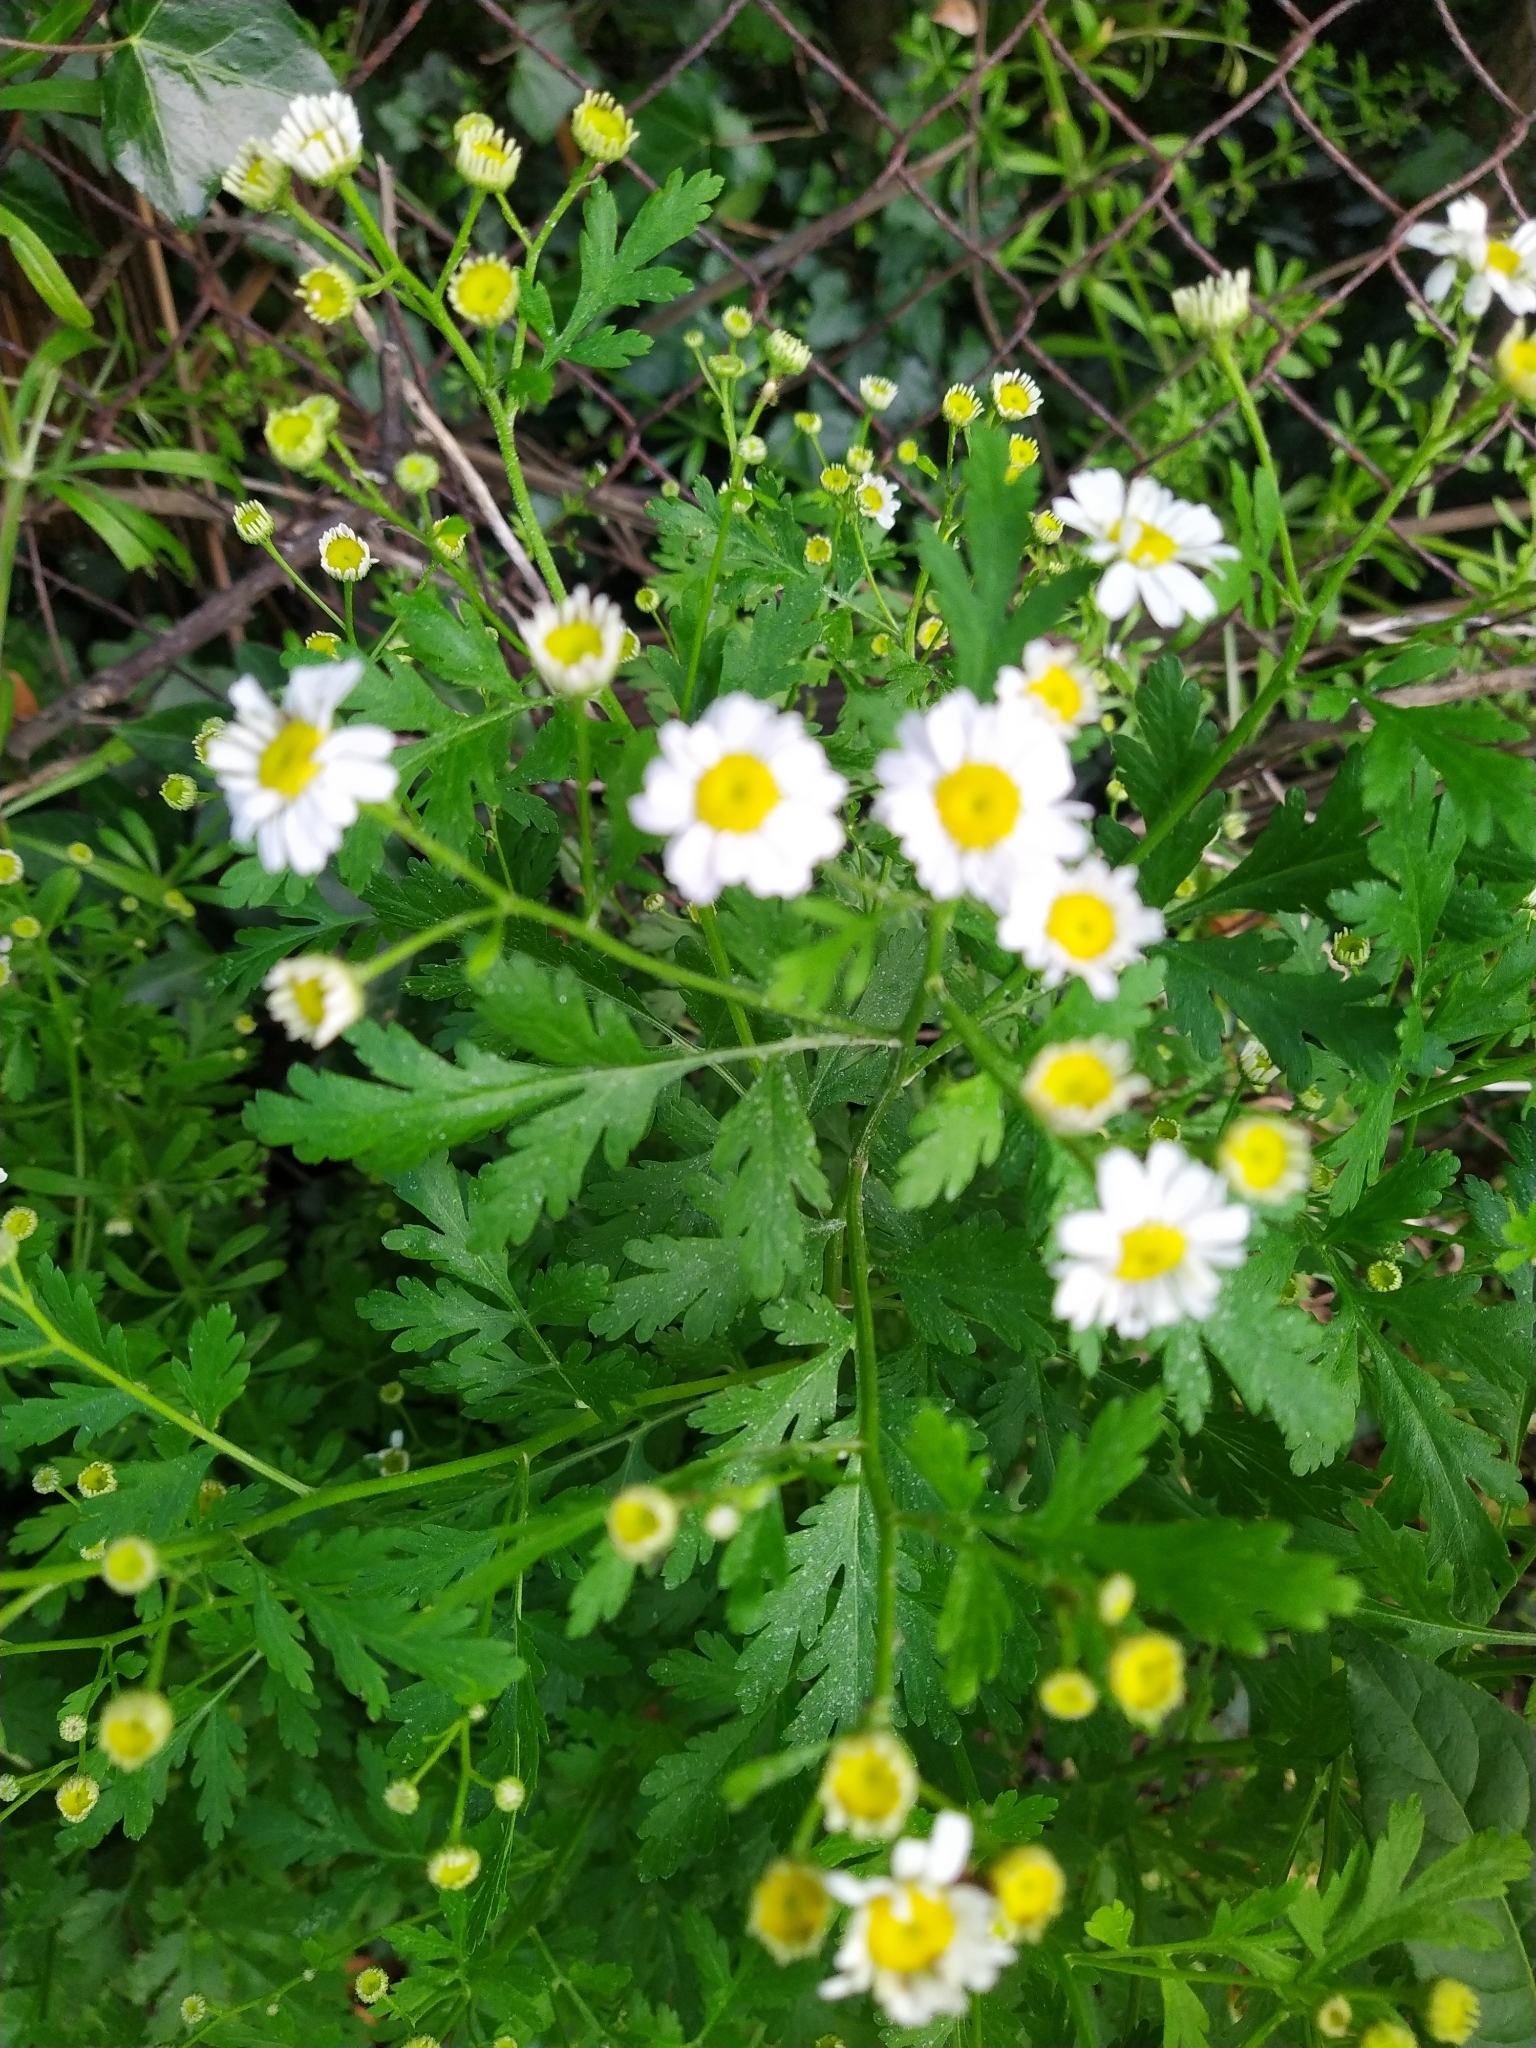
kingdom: Plantae
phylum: Tracheophyta
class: Magnoliopsida
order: Asterales
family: Asteraceae
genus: Tanacetum
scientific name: Tanacetum parthenium
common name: Feverfew
